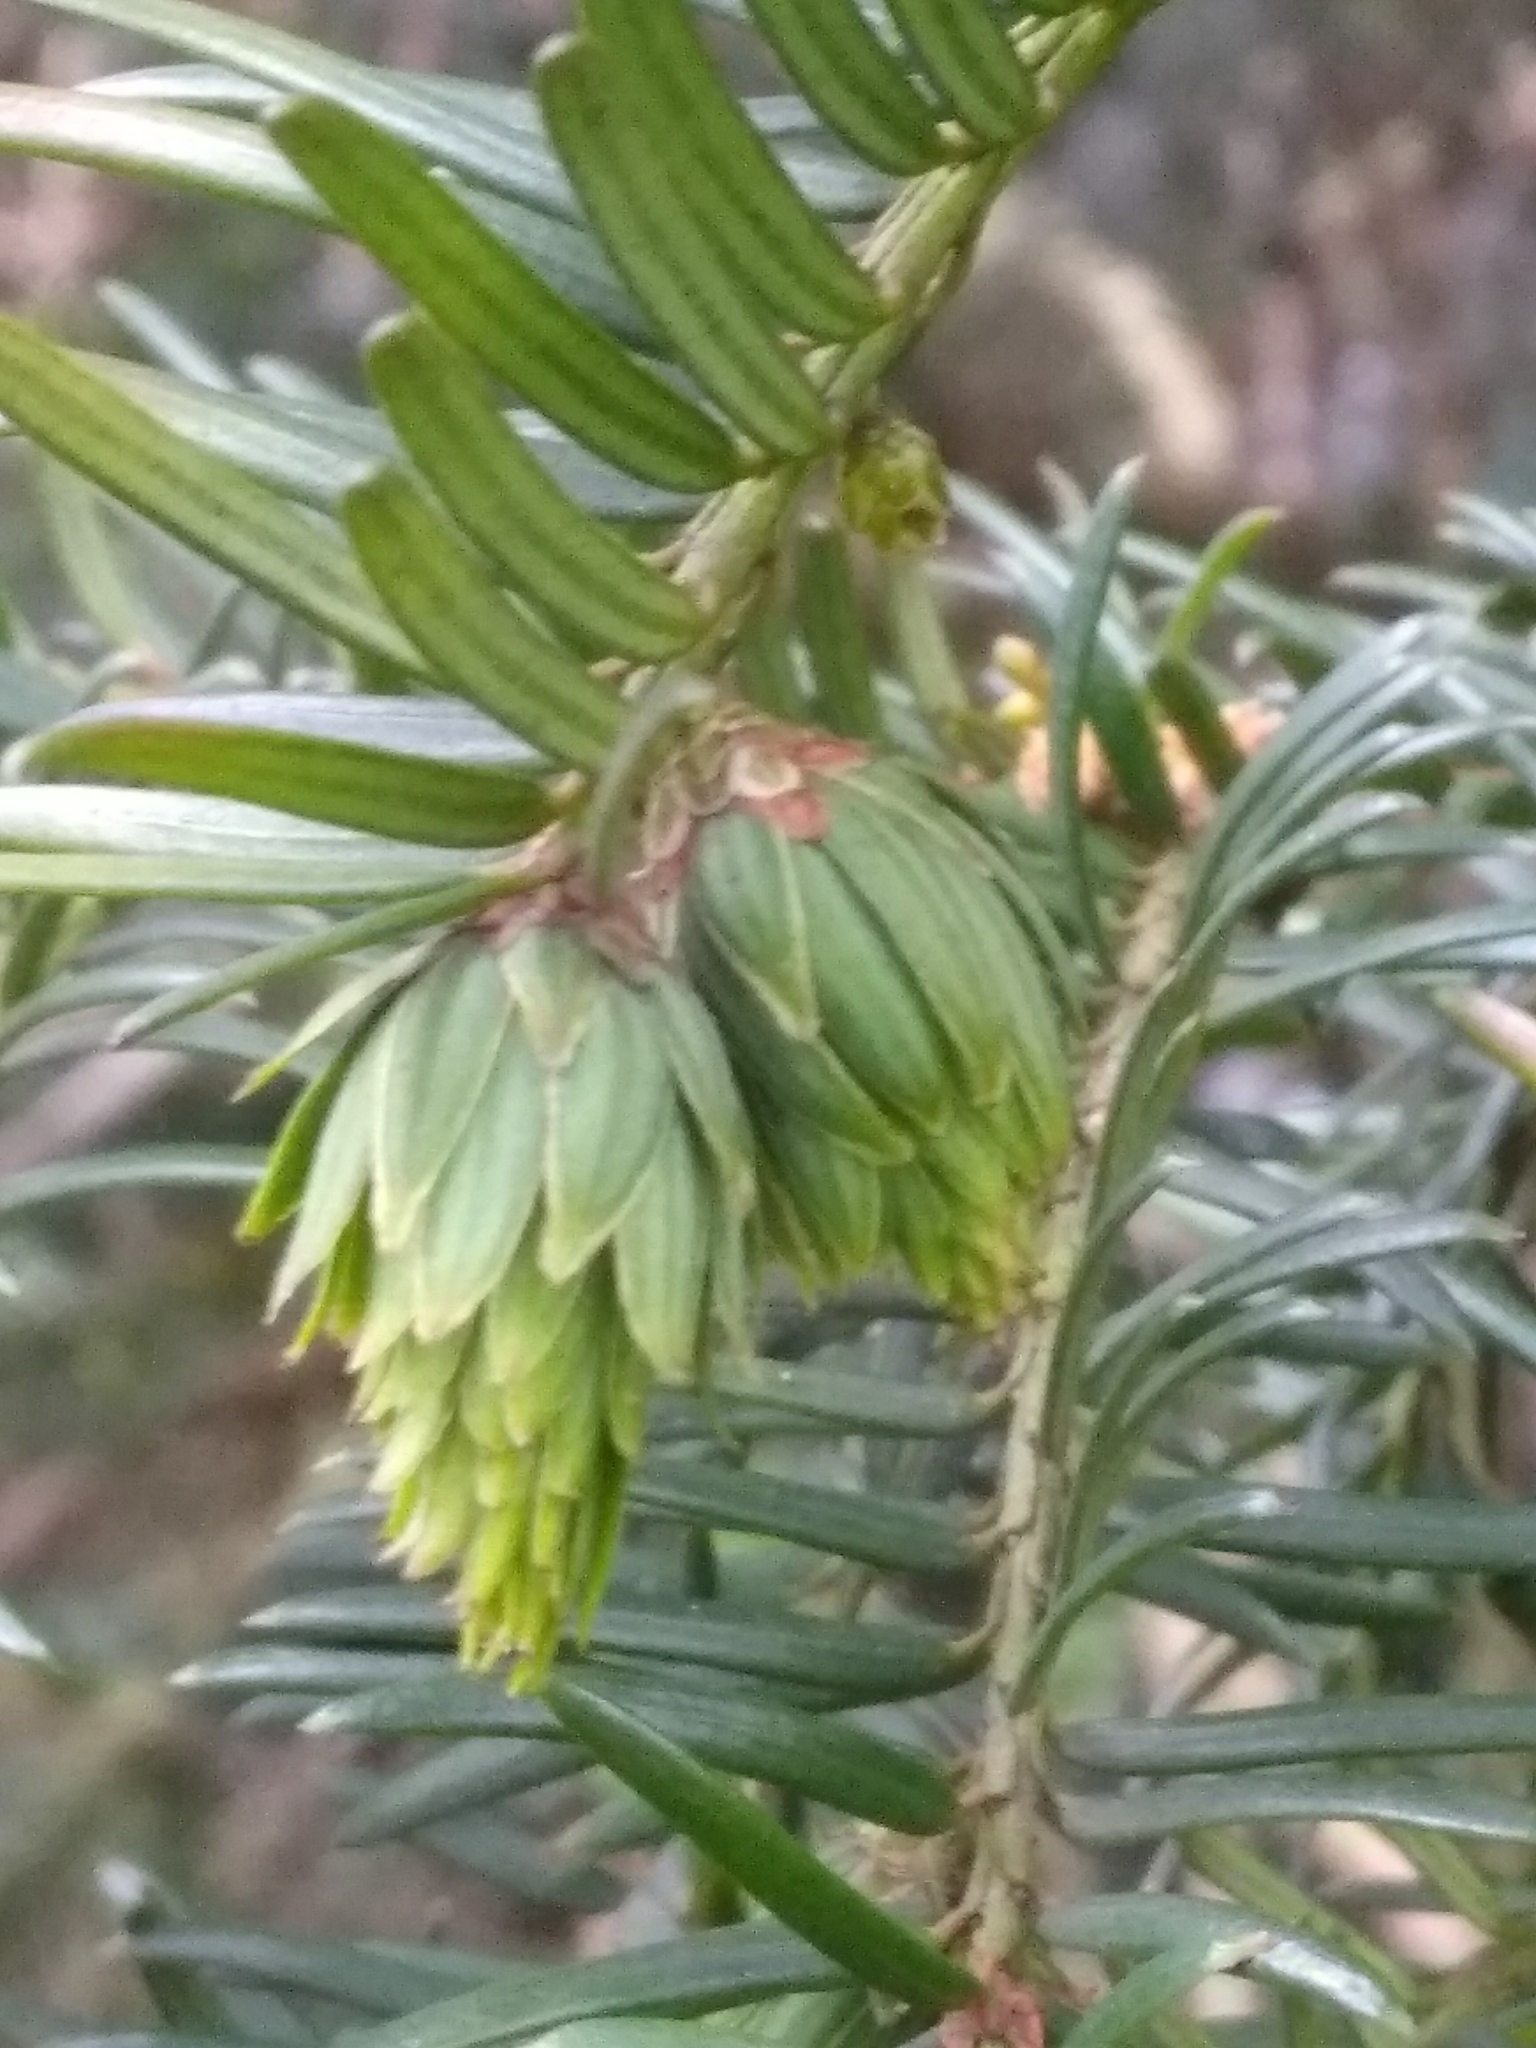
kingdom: Animalia
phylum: Arthropoda
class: Insecta
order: Diptera
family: Cecidomyiidae
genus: Taxomyia
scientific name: Taxomyia taxi
